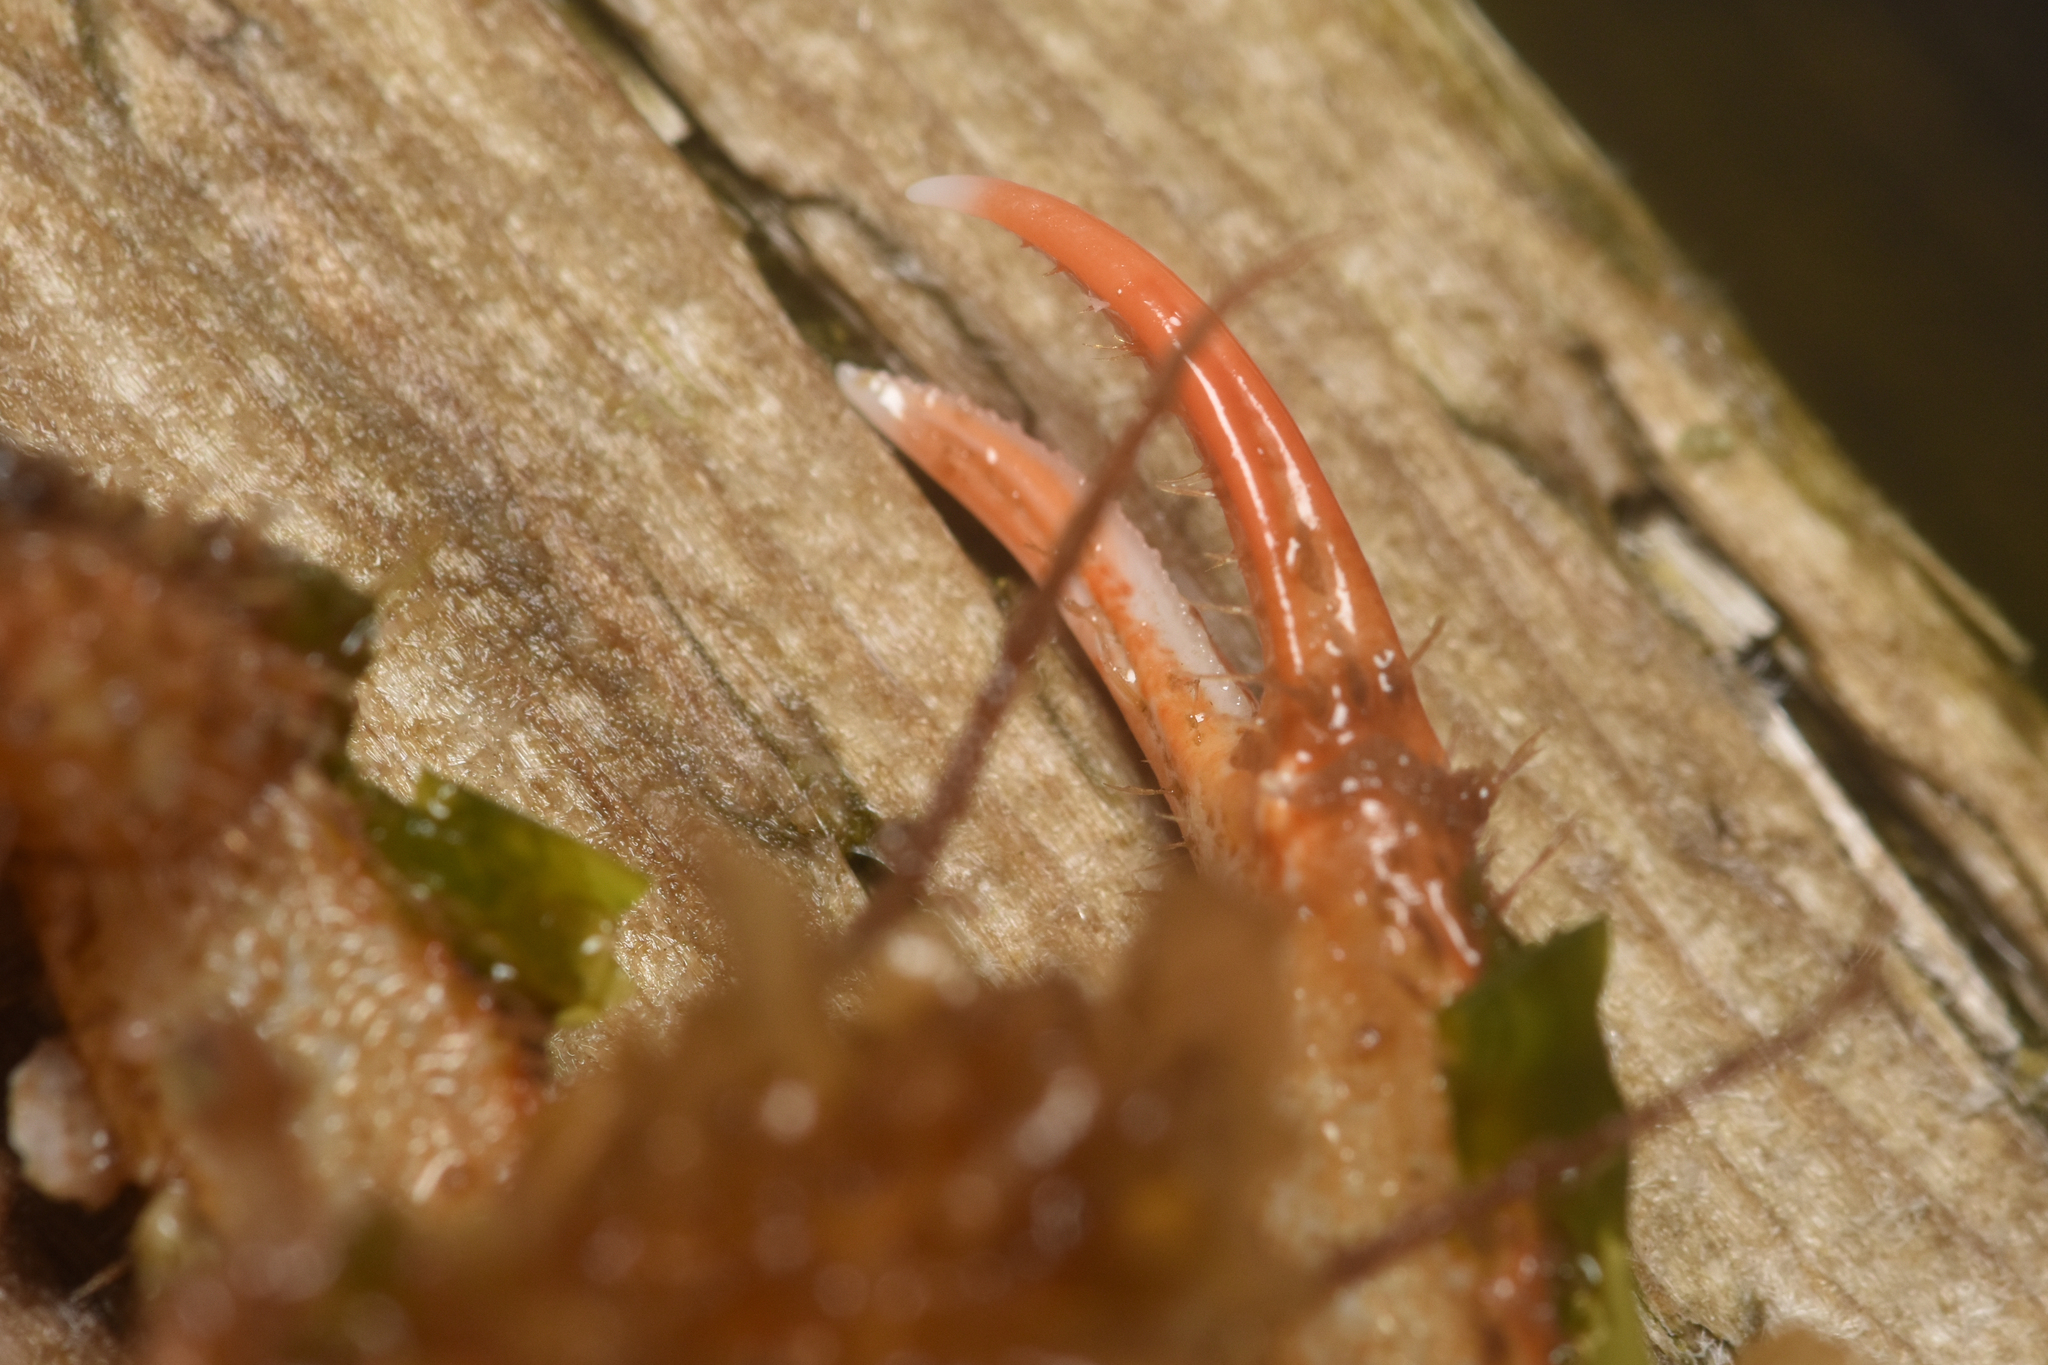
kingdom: Animalia
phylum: Arthropoda
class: Malacostraca
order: Decapoda
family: Oregoniidae
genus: Oregonia
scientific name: Oregonia gracilis
